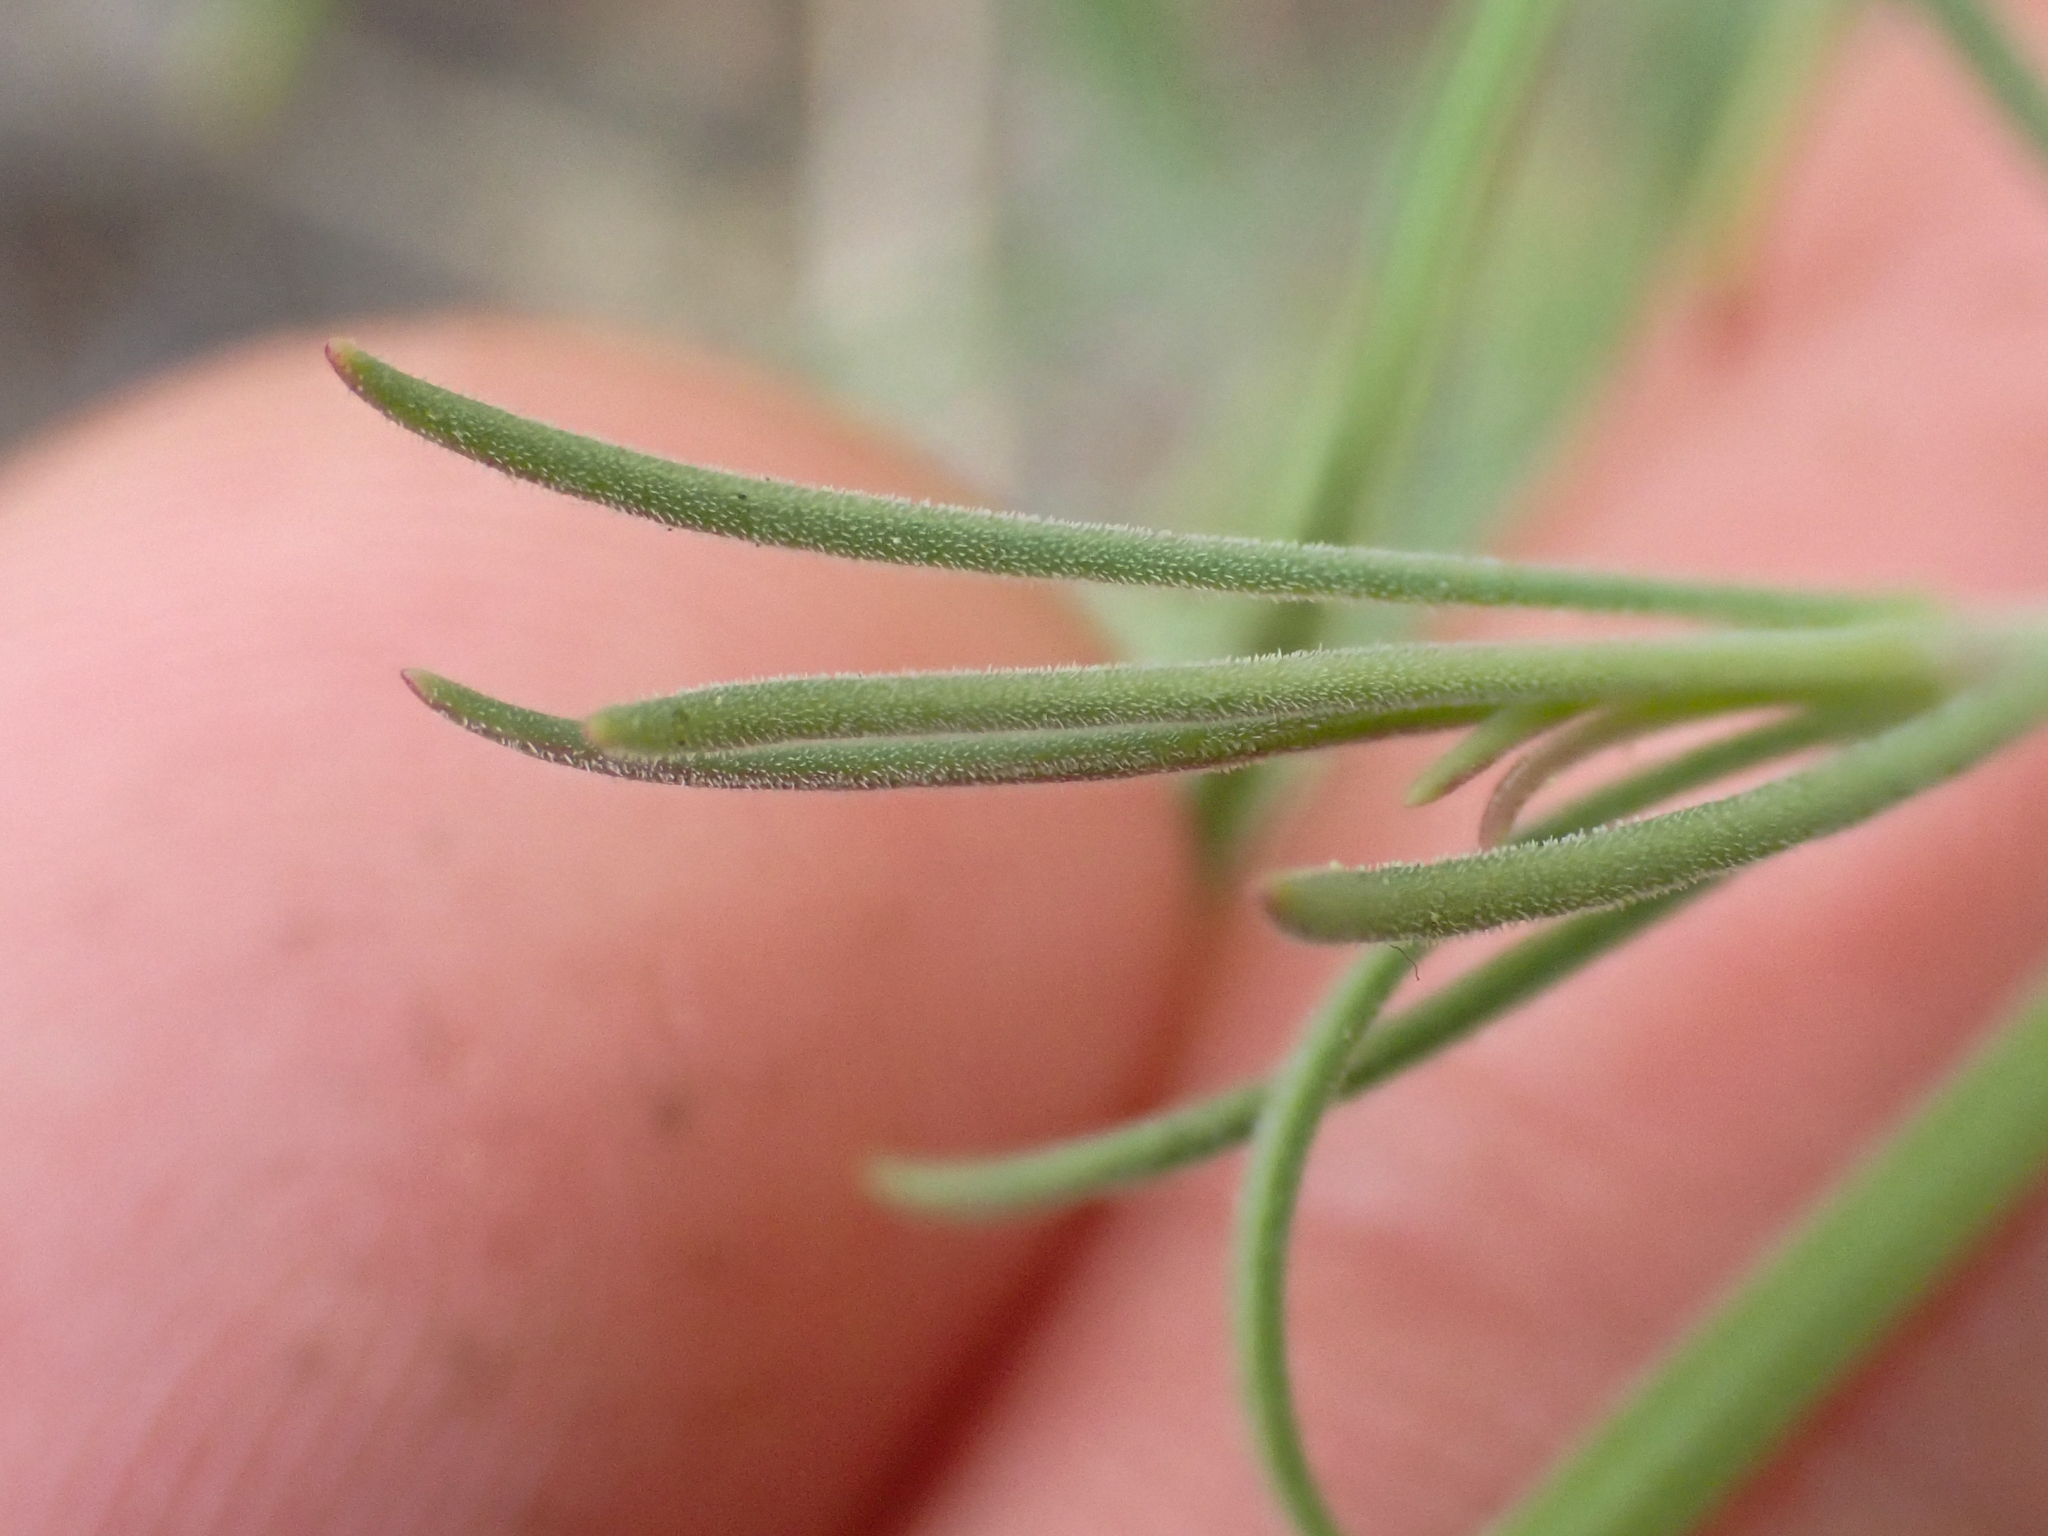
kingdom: Plantae
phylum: Tracheophyta
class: Magnoliopsida
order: Lamiales
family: Plantaginaceae
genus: Penstemon
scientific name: Penstemon filiformis
